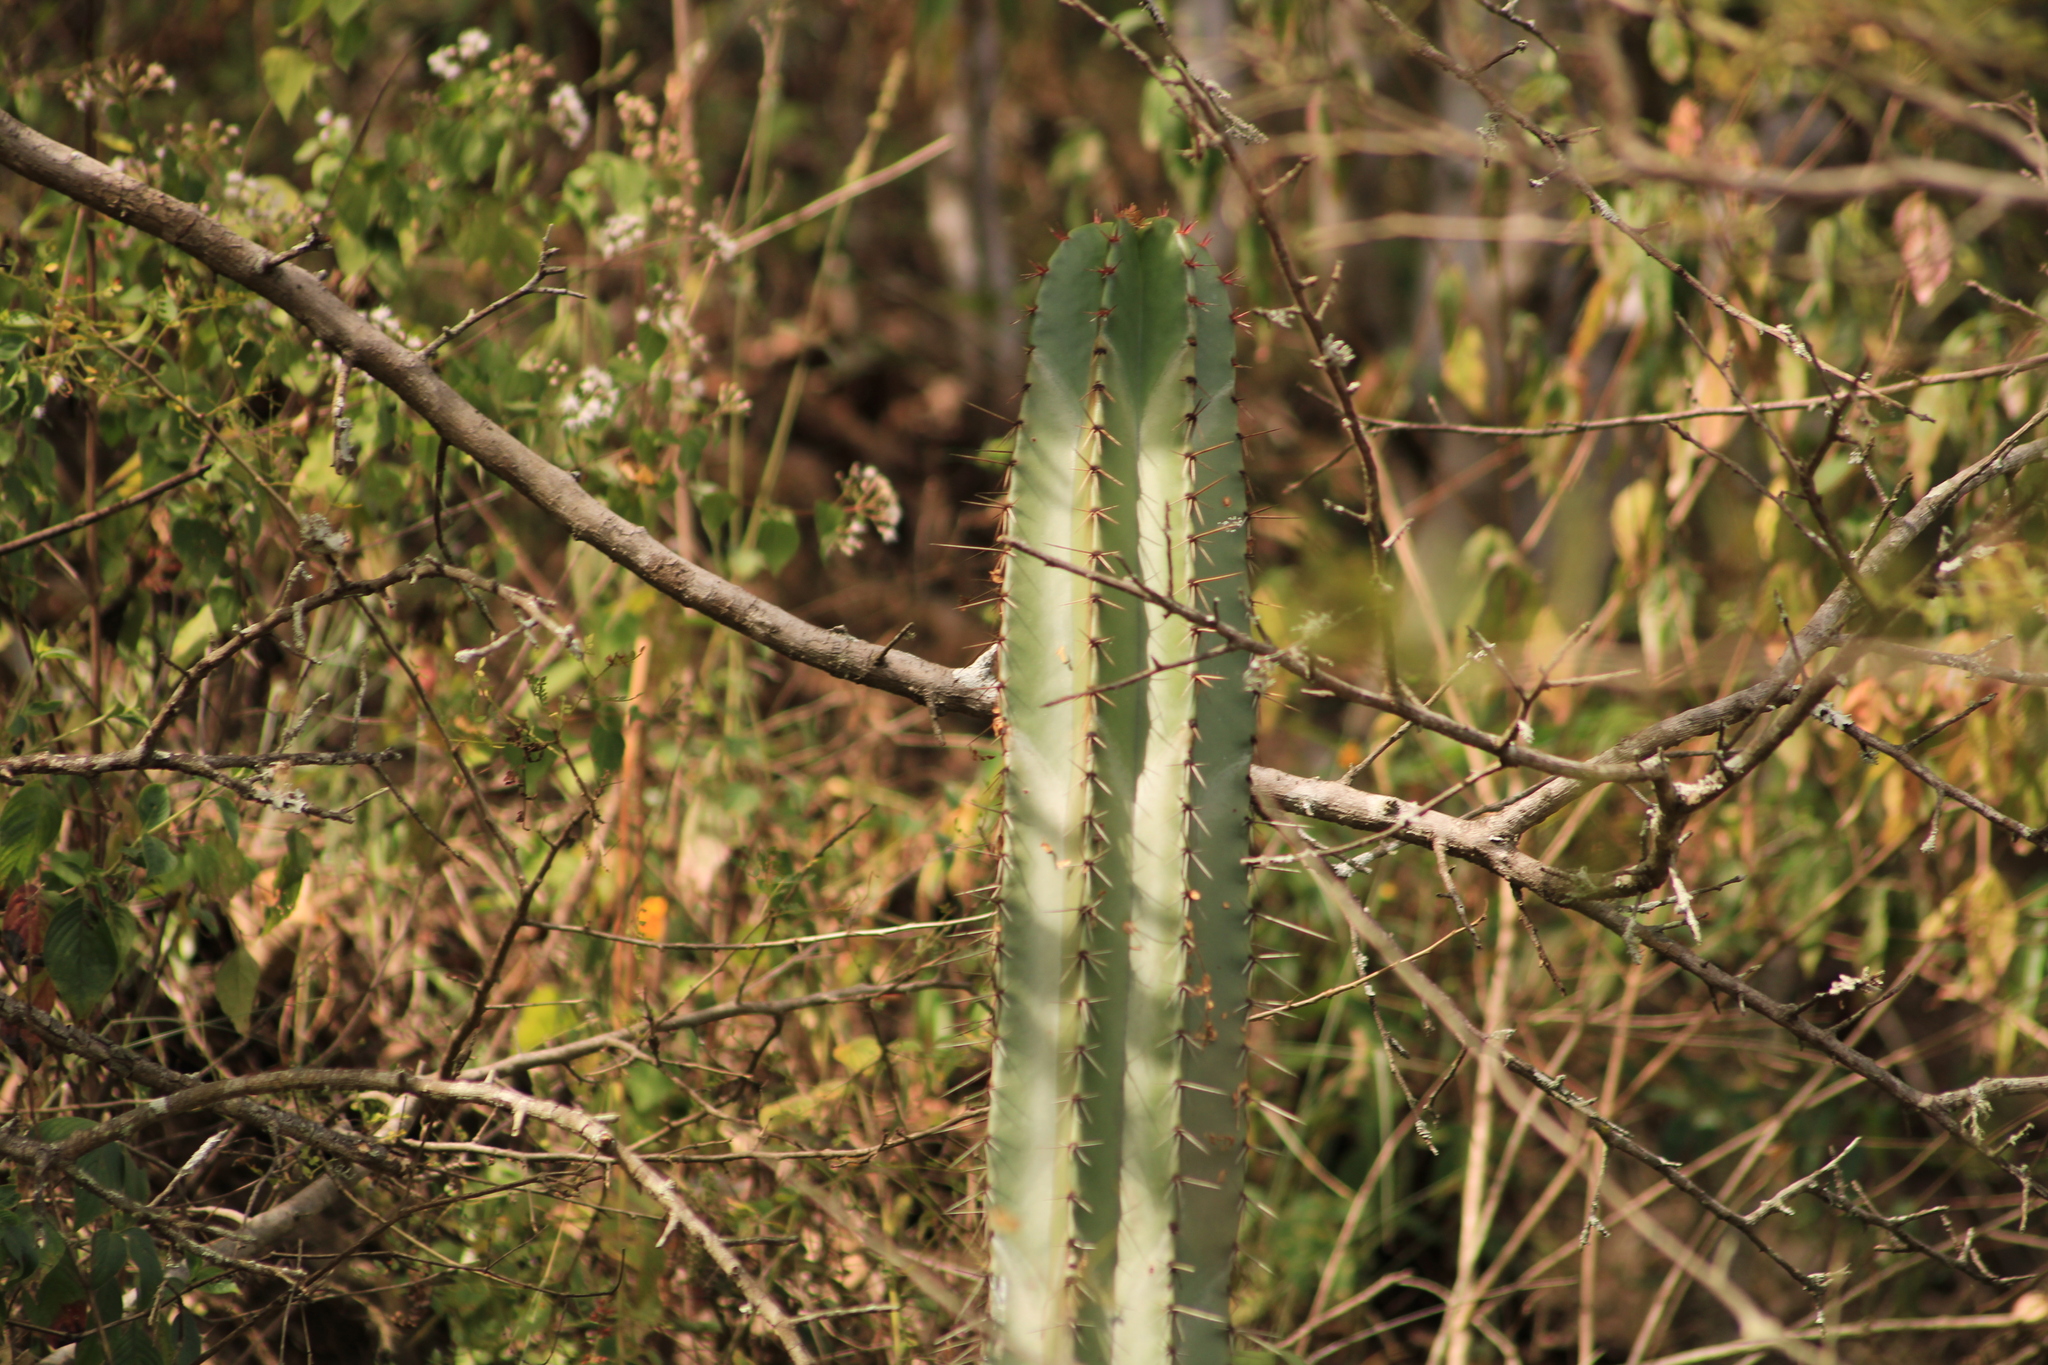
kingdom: Plantae
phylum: Tracheophyta
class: Magnoliopsida
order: Caryophyllales
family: Cactaceae
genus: Stenocereus
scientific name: Stenocereus queretaroensis
